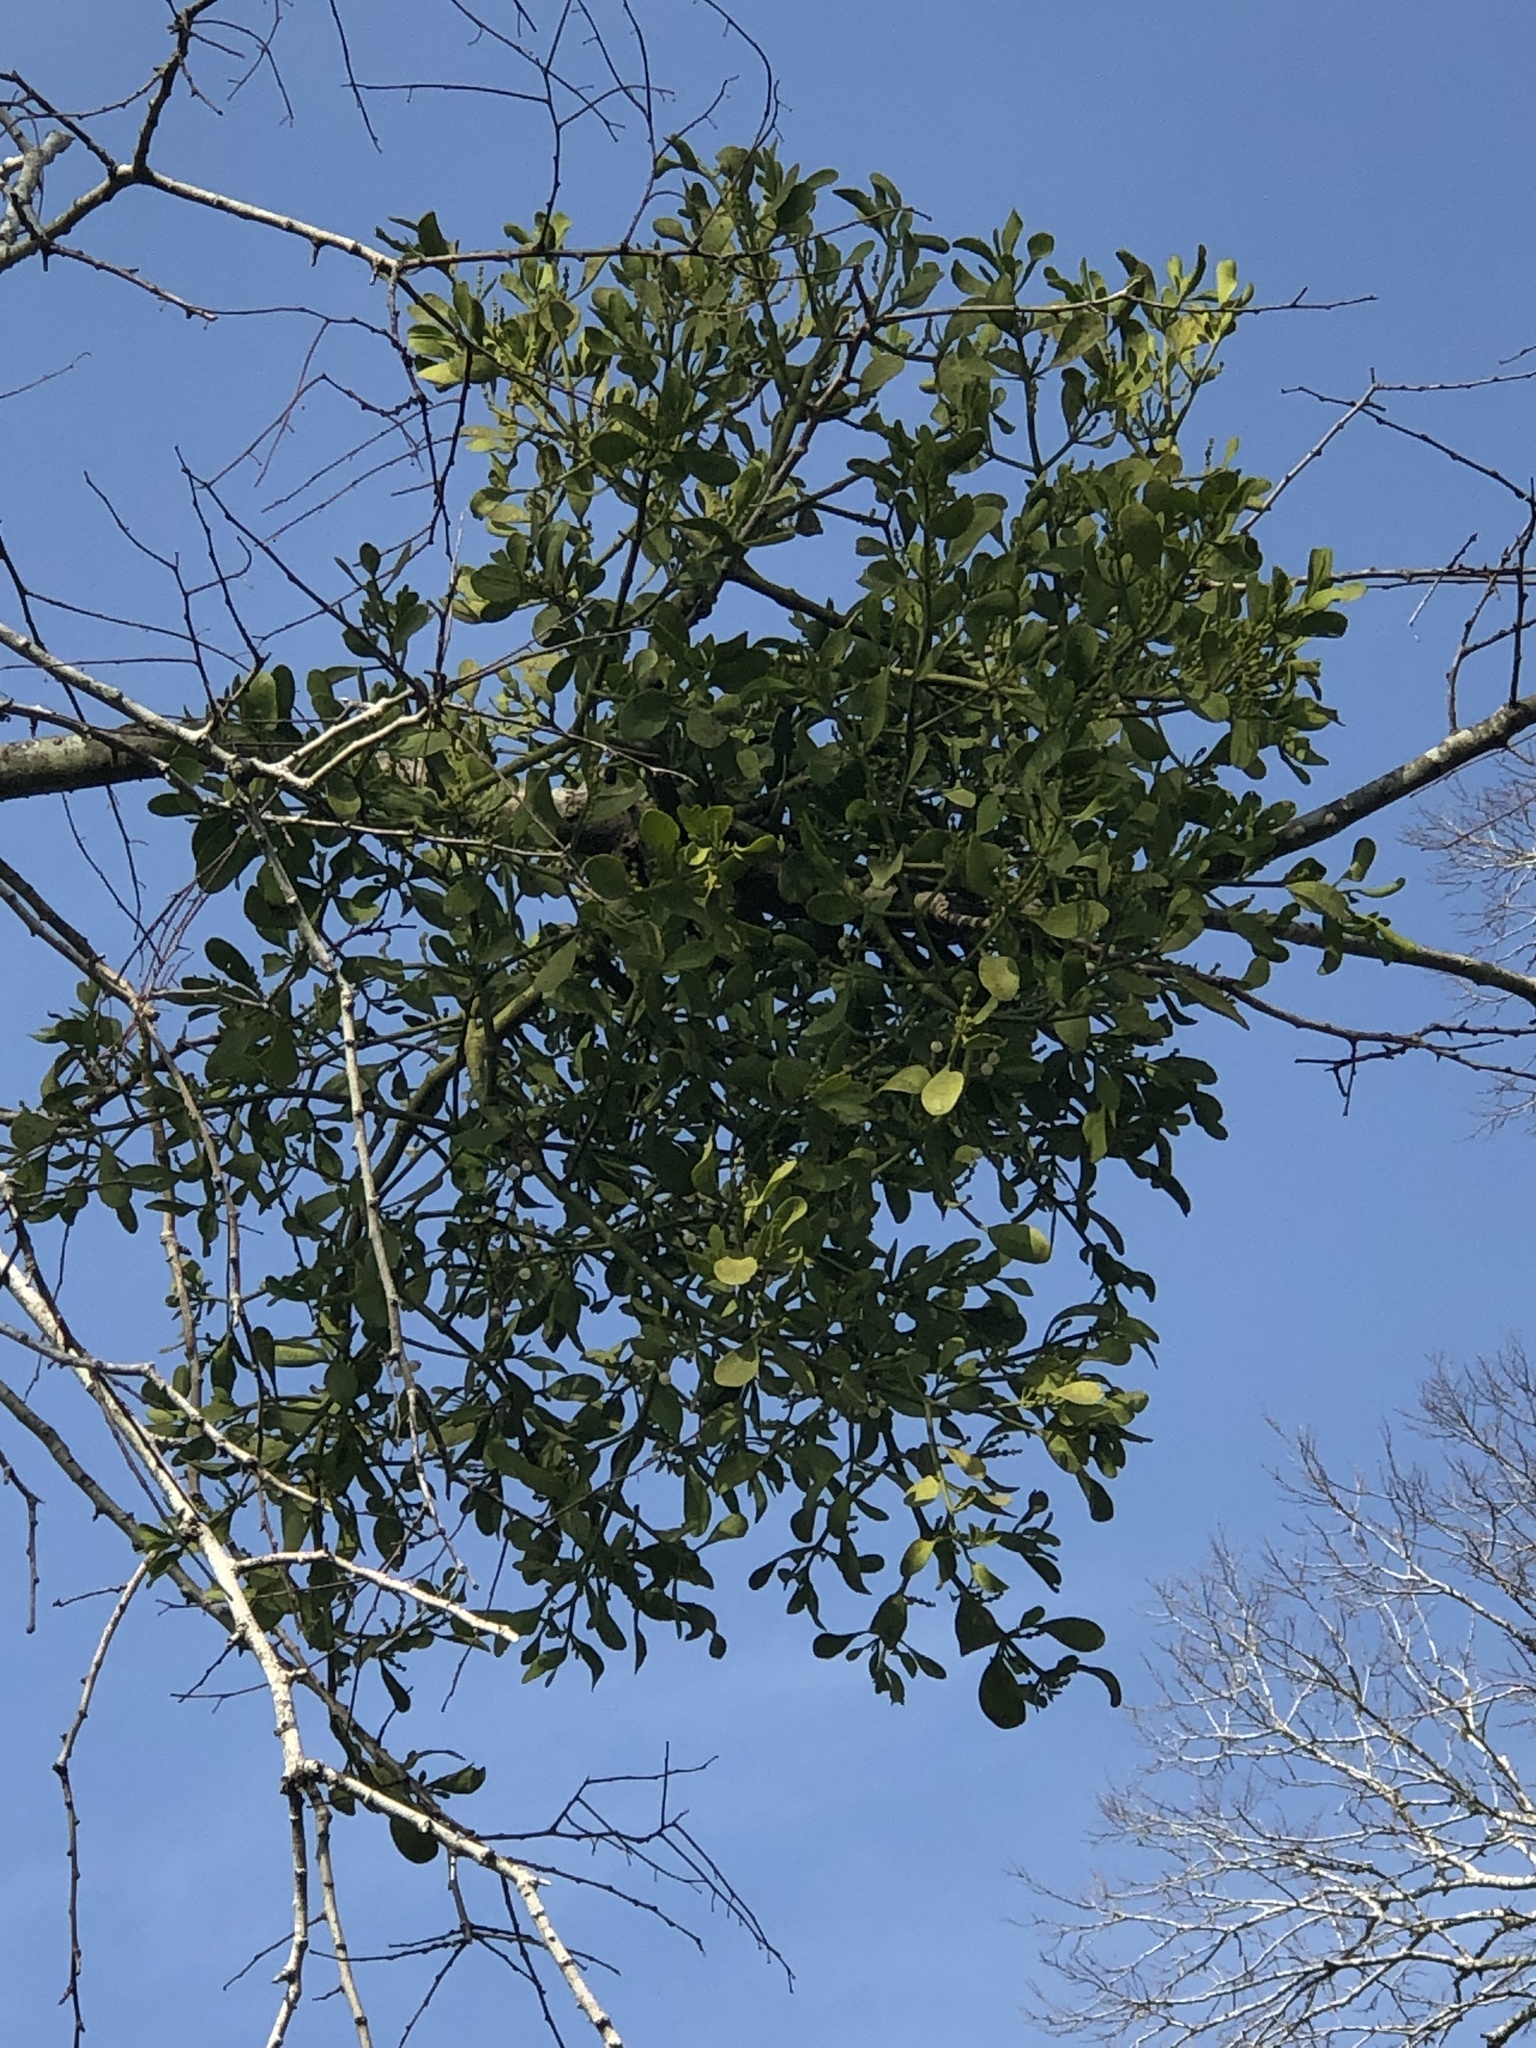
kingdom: Plantae
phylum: Tracheophyta
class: Magnoliopsida
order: Santalales
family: Viscaceae
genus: Phoradendron
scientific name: Phoradendron leucarpum
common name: Pacific mistletoe
